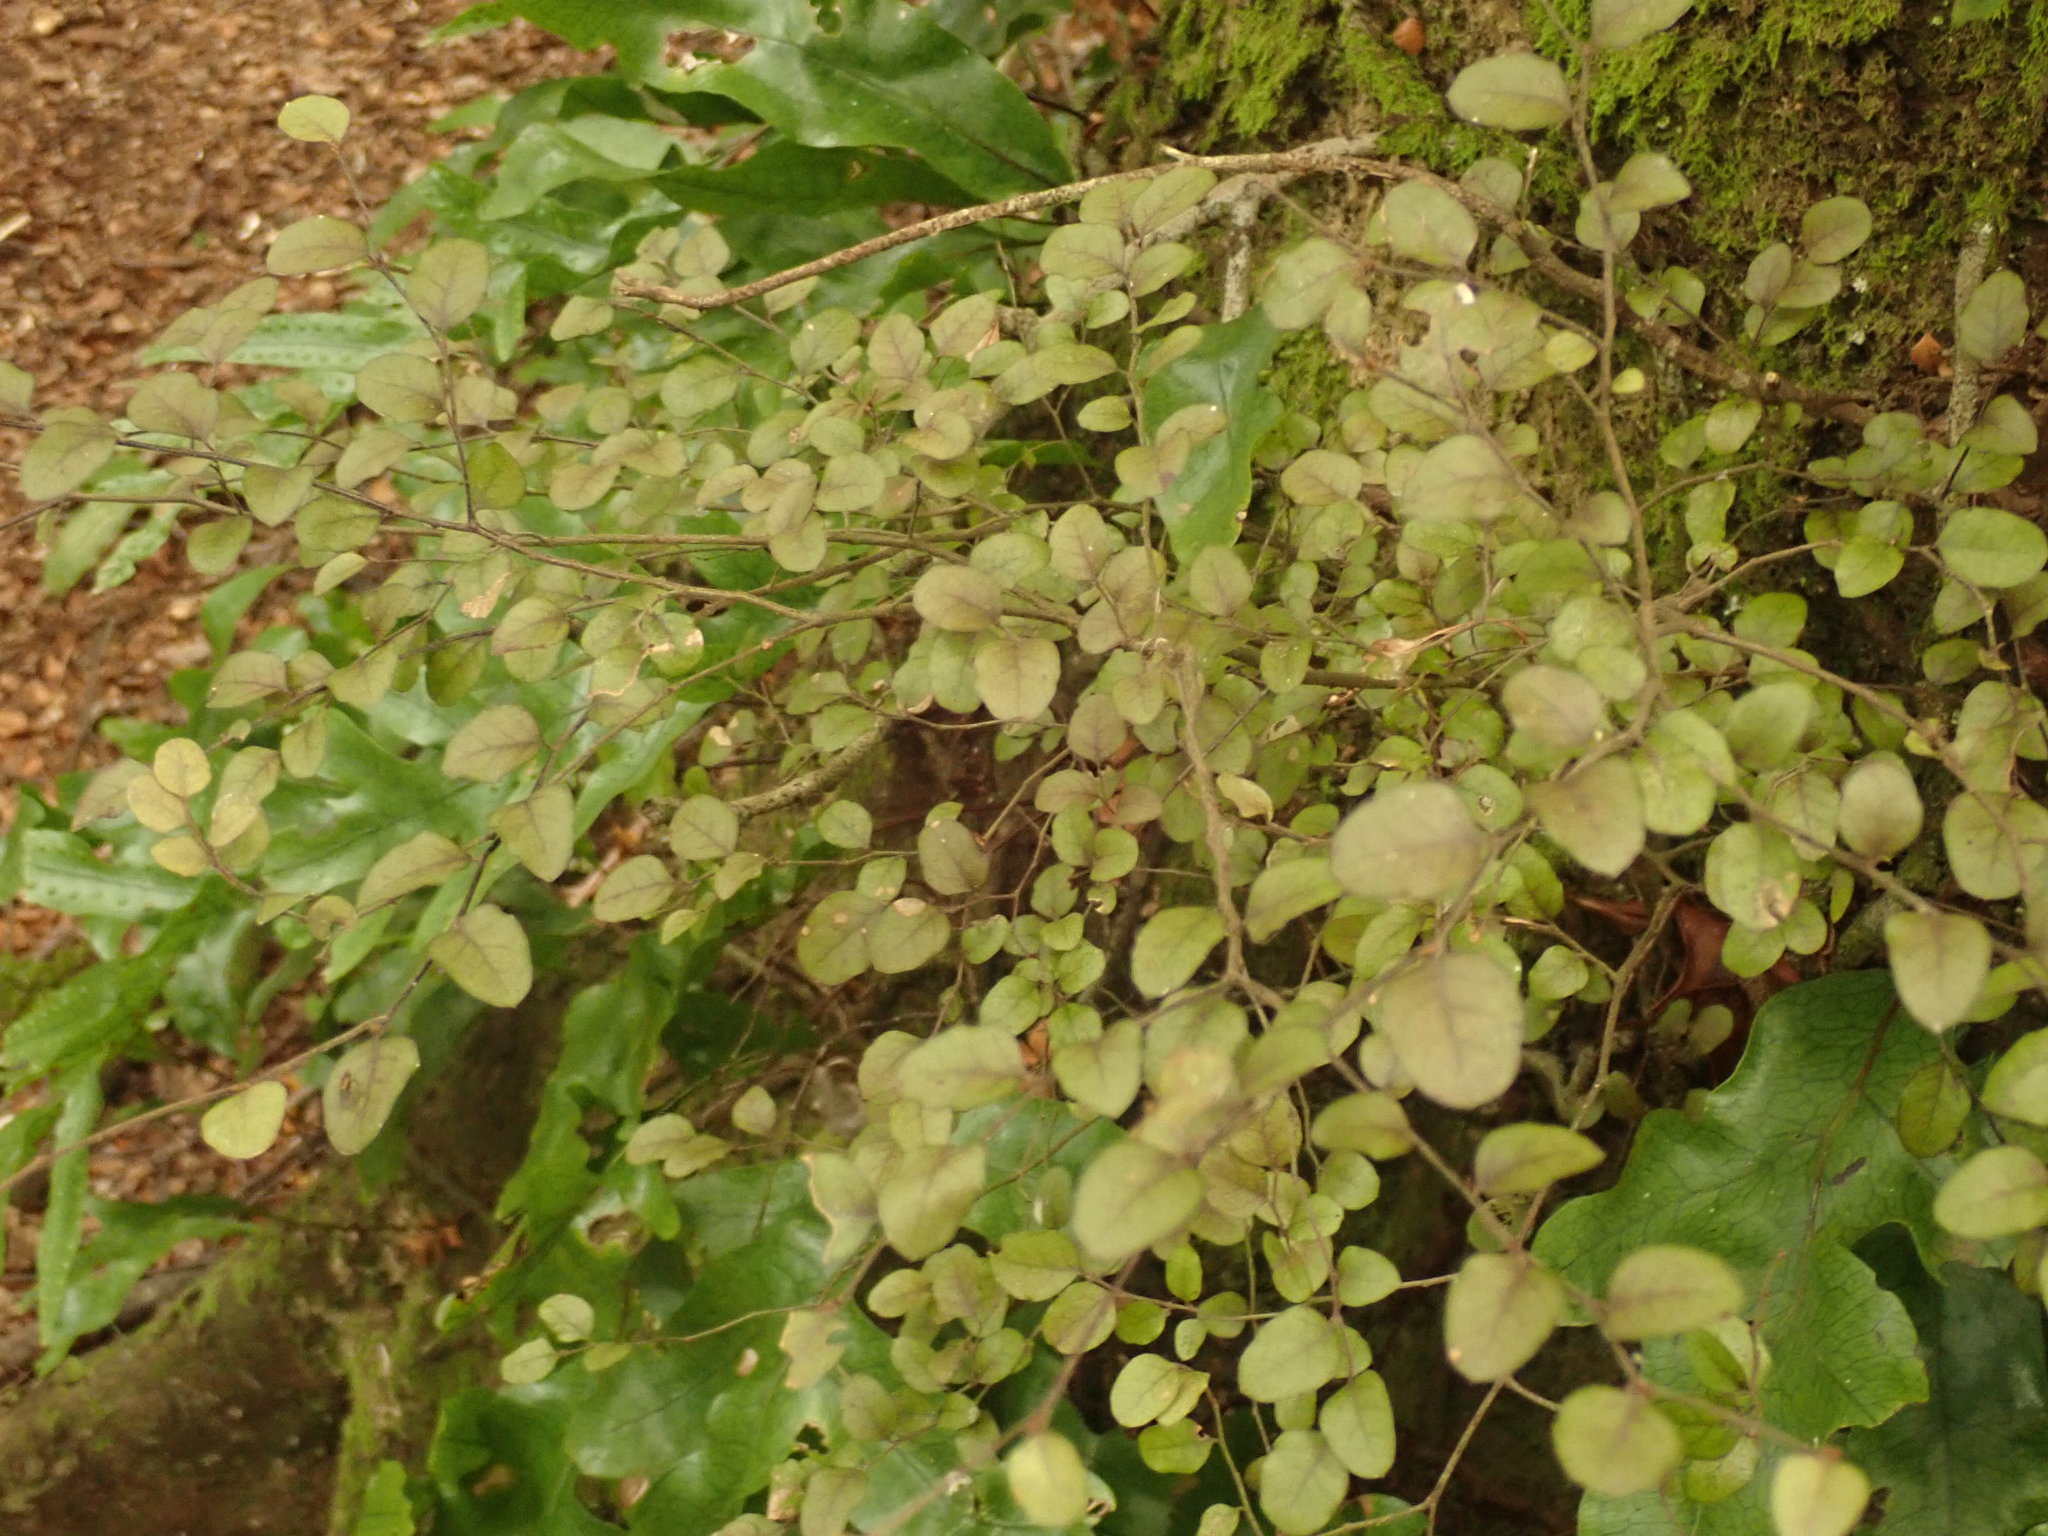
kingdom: Plantae
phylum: Tracheophyta
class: Magnoliopsida
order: Fagales
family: Nothofagaceae
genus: Nothofagus
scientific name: Nothofagus solandri
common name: Black beech
